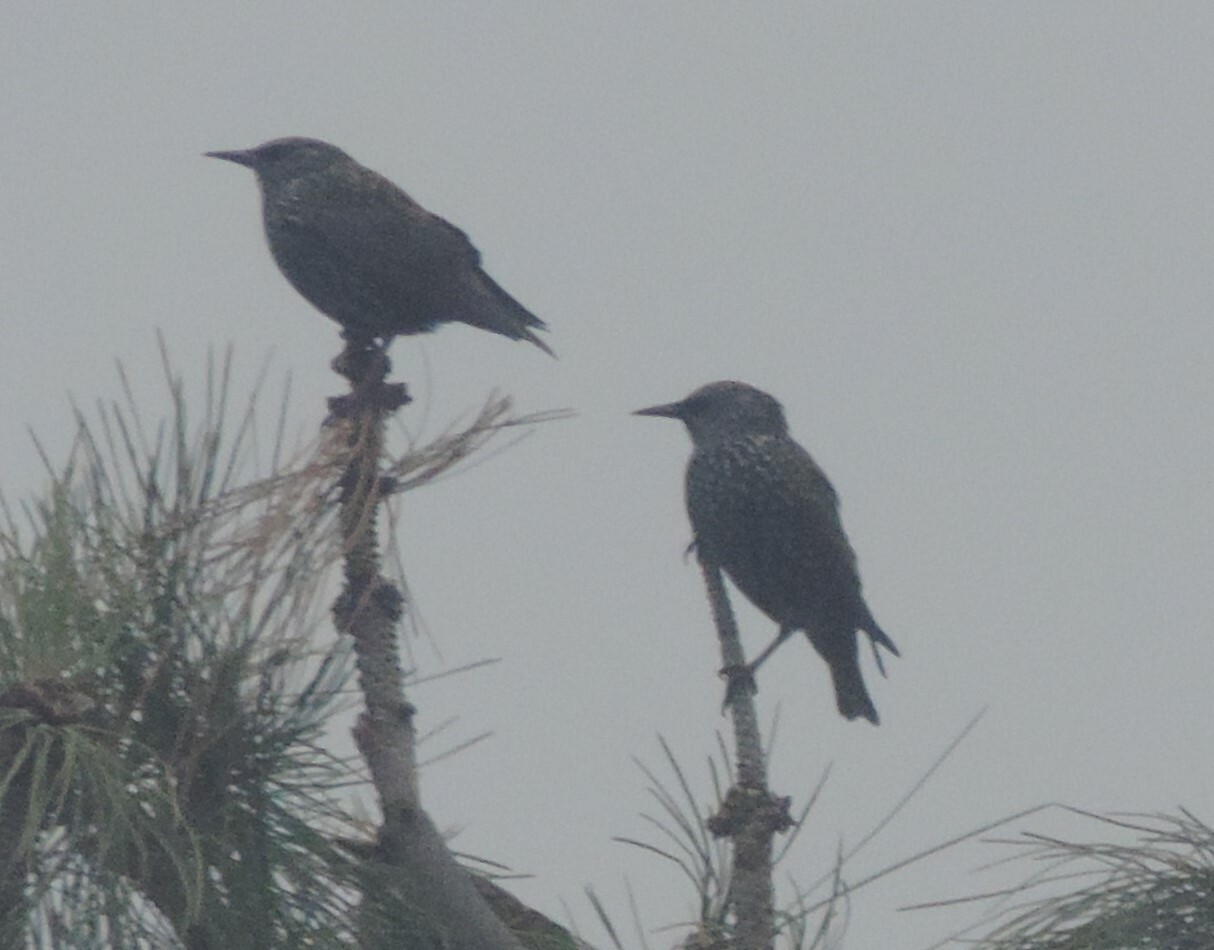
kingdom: Animalia
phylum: Chordata
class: Aves
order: Passeriformes
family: Sturnidae
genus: Sturnus
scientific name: Sturnus vulgaris
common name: Common starling
